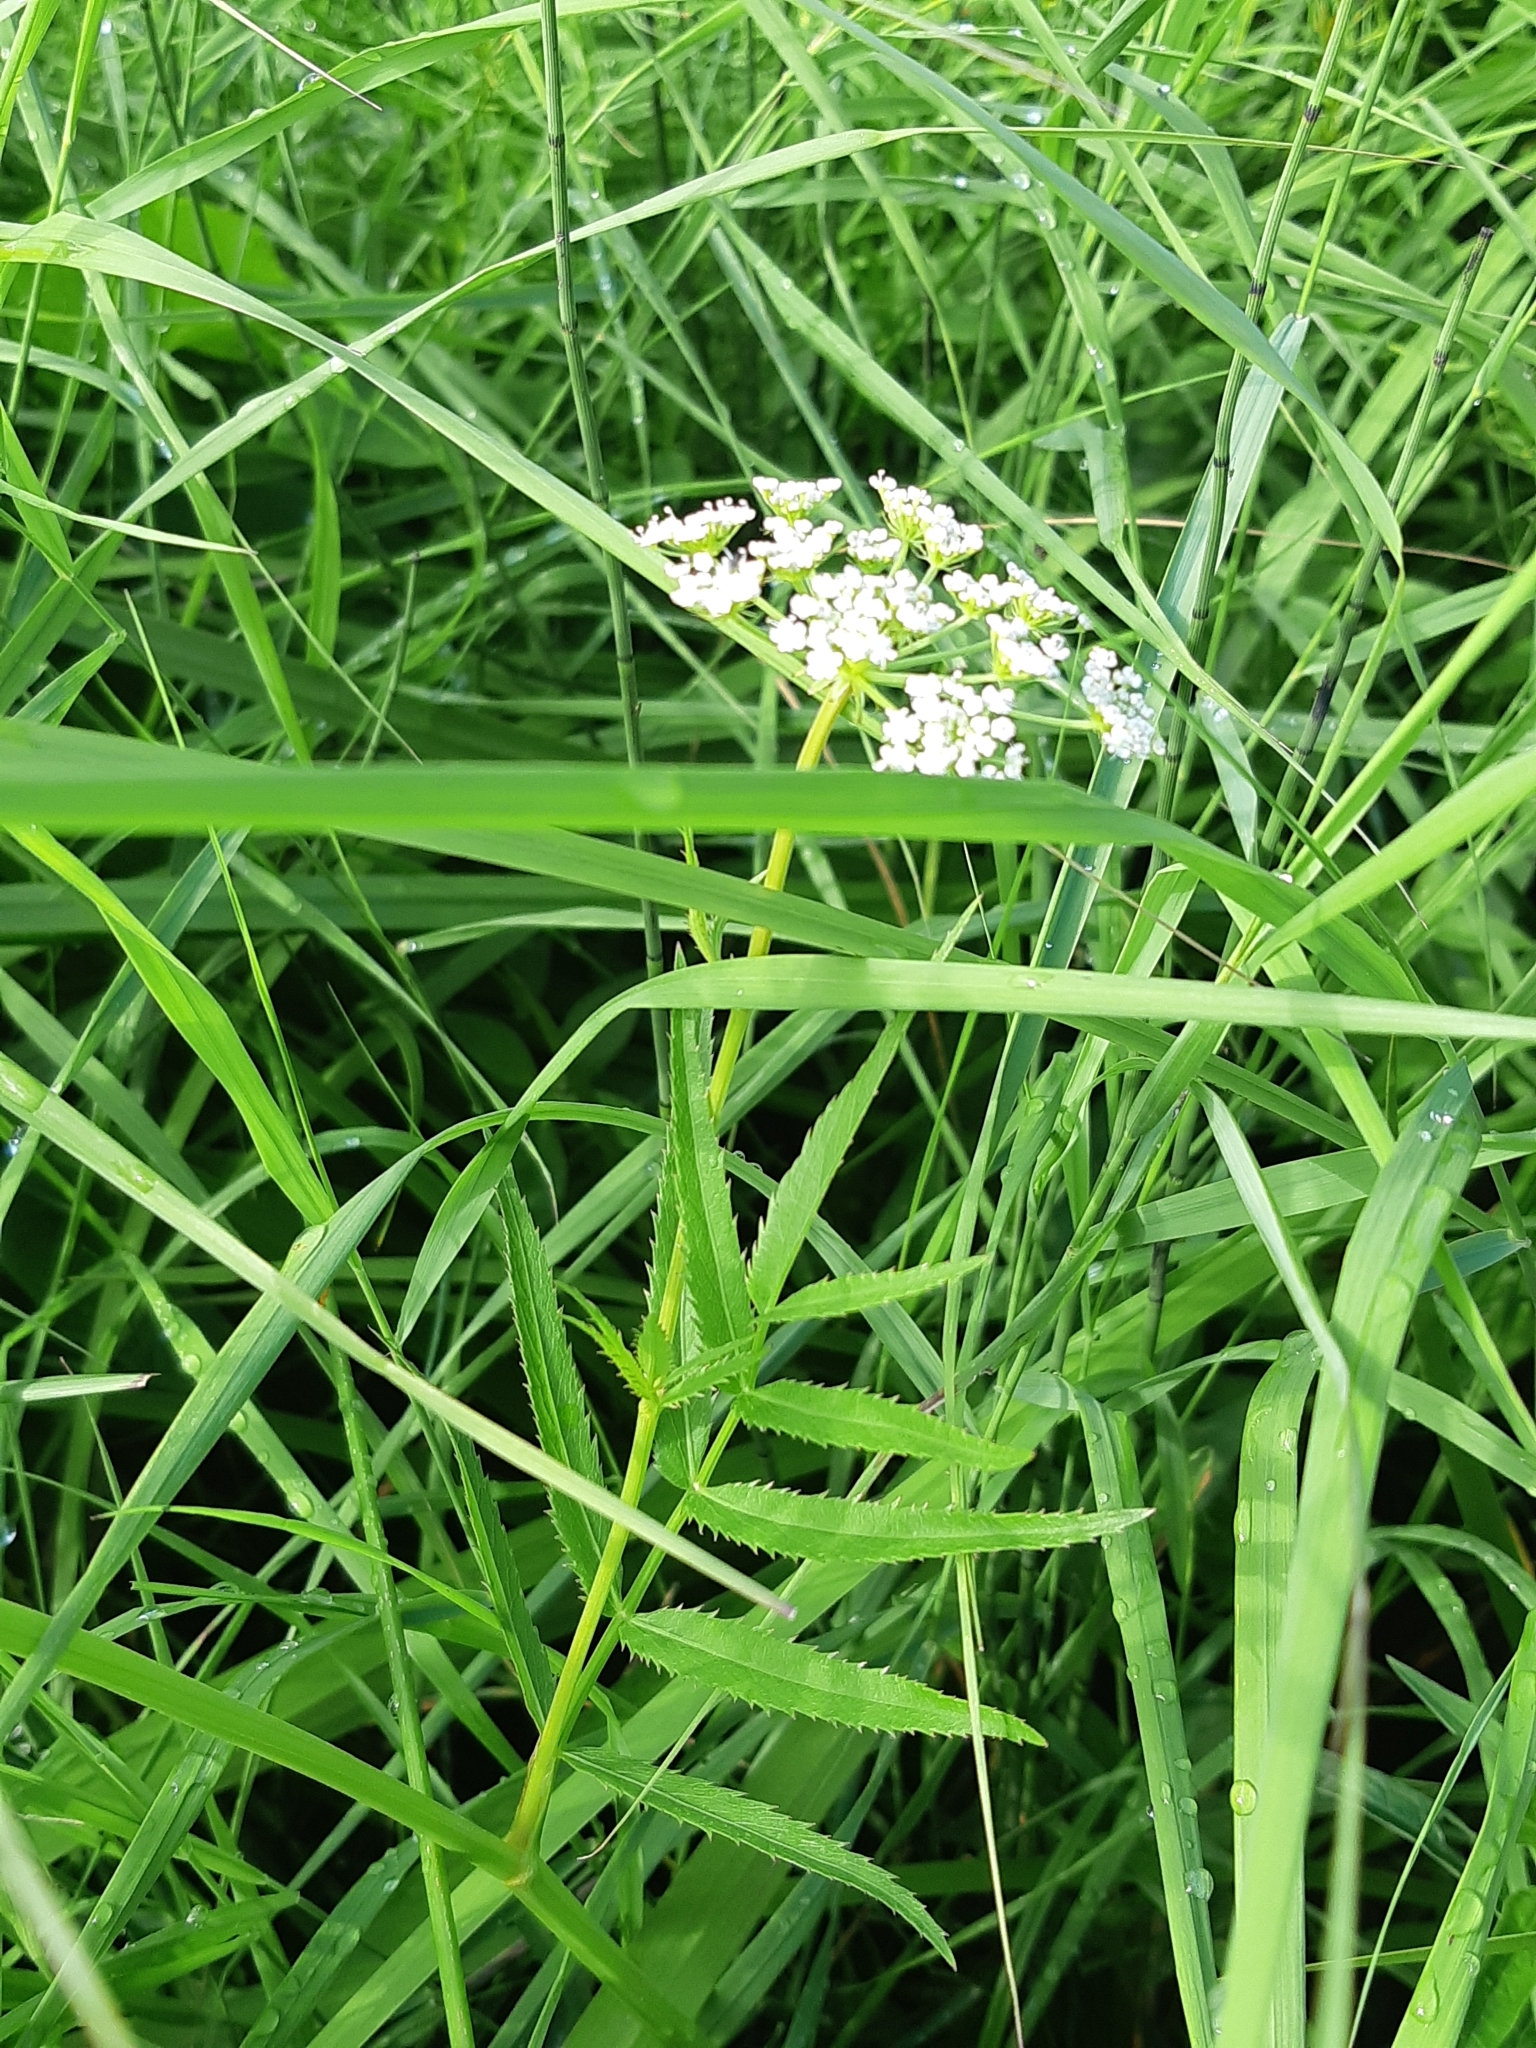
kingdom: Plantae
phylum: Tracheophyta
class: Magnoliopsida
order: Apiales
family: Apiaceae
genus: Sium
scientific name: Sium suave
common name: Hemlock water-parsnip
